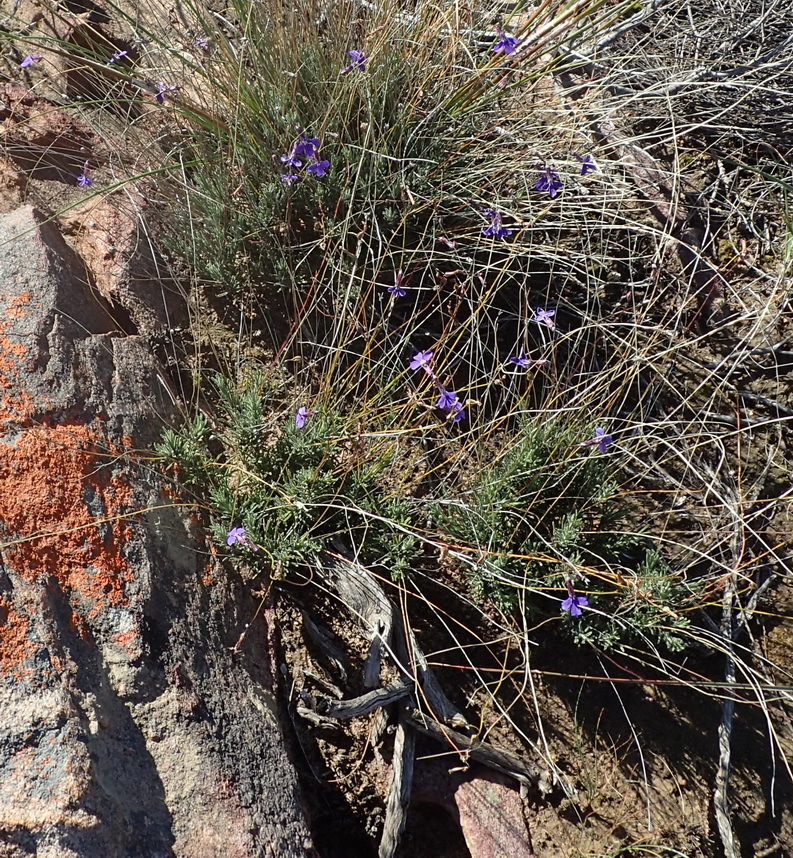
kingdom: Plantae
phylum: Tracheophyta
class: Magnoliopsida
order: Asterales
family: Campanulaceae
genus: Lobelia
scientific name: Lobelia tomentosa
